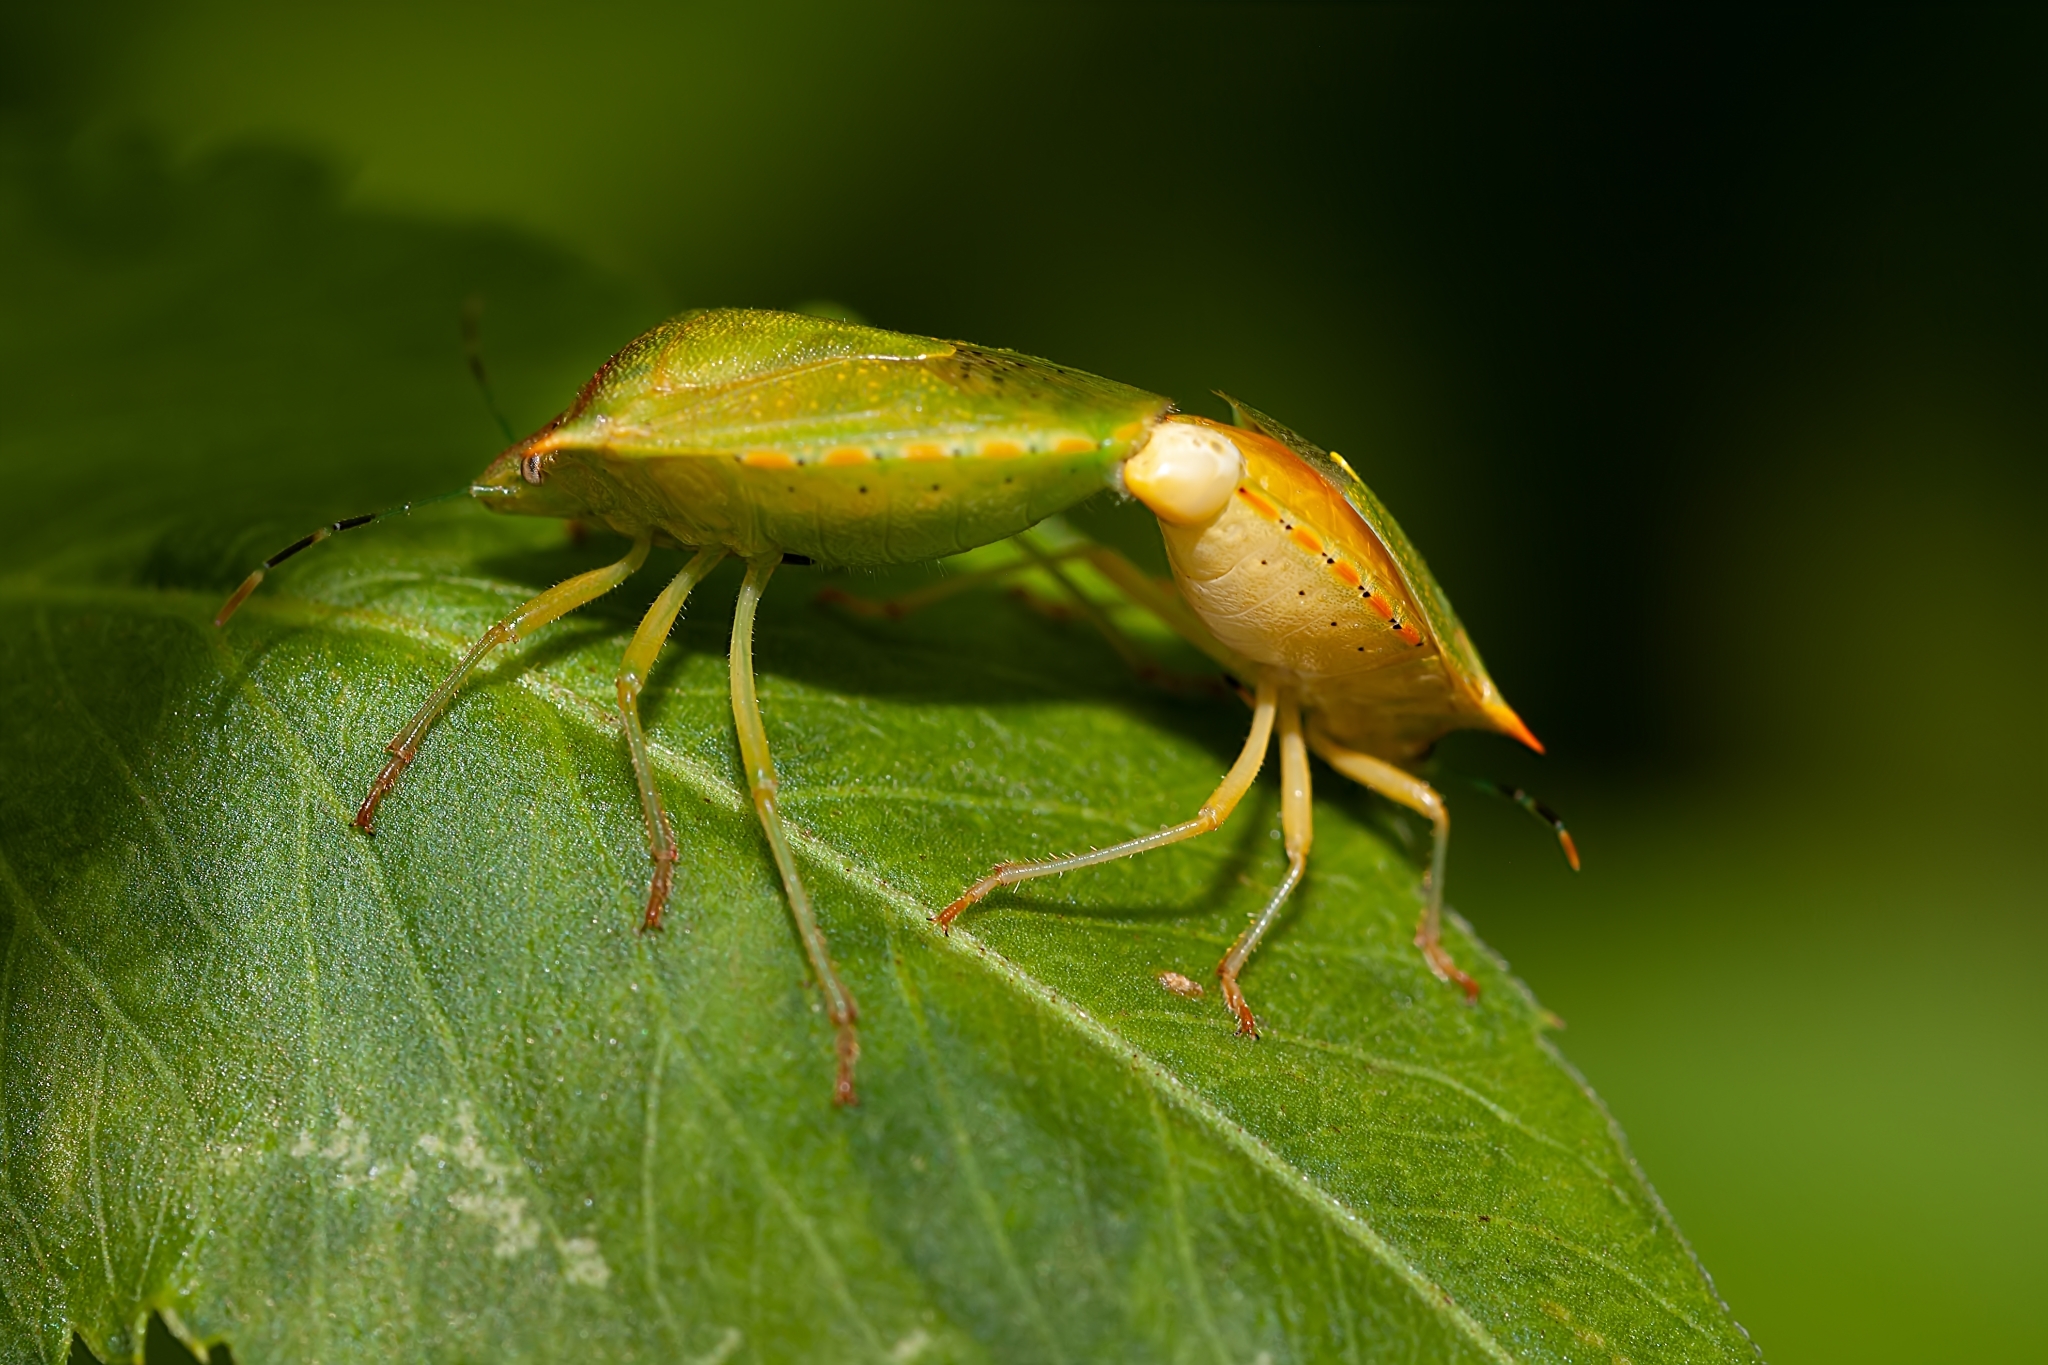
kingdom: Animalia
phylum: Arthropoda
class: Insecta
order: Hemiptera
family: Pentatomidae
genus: Thyanta
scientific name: Thyanta perditor
